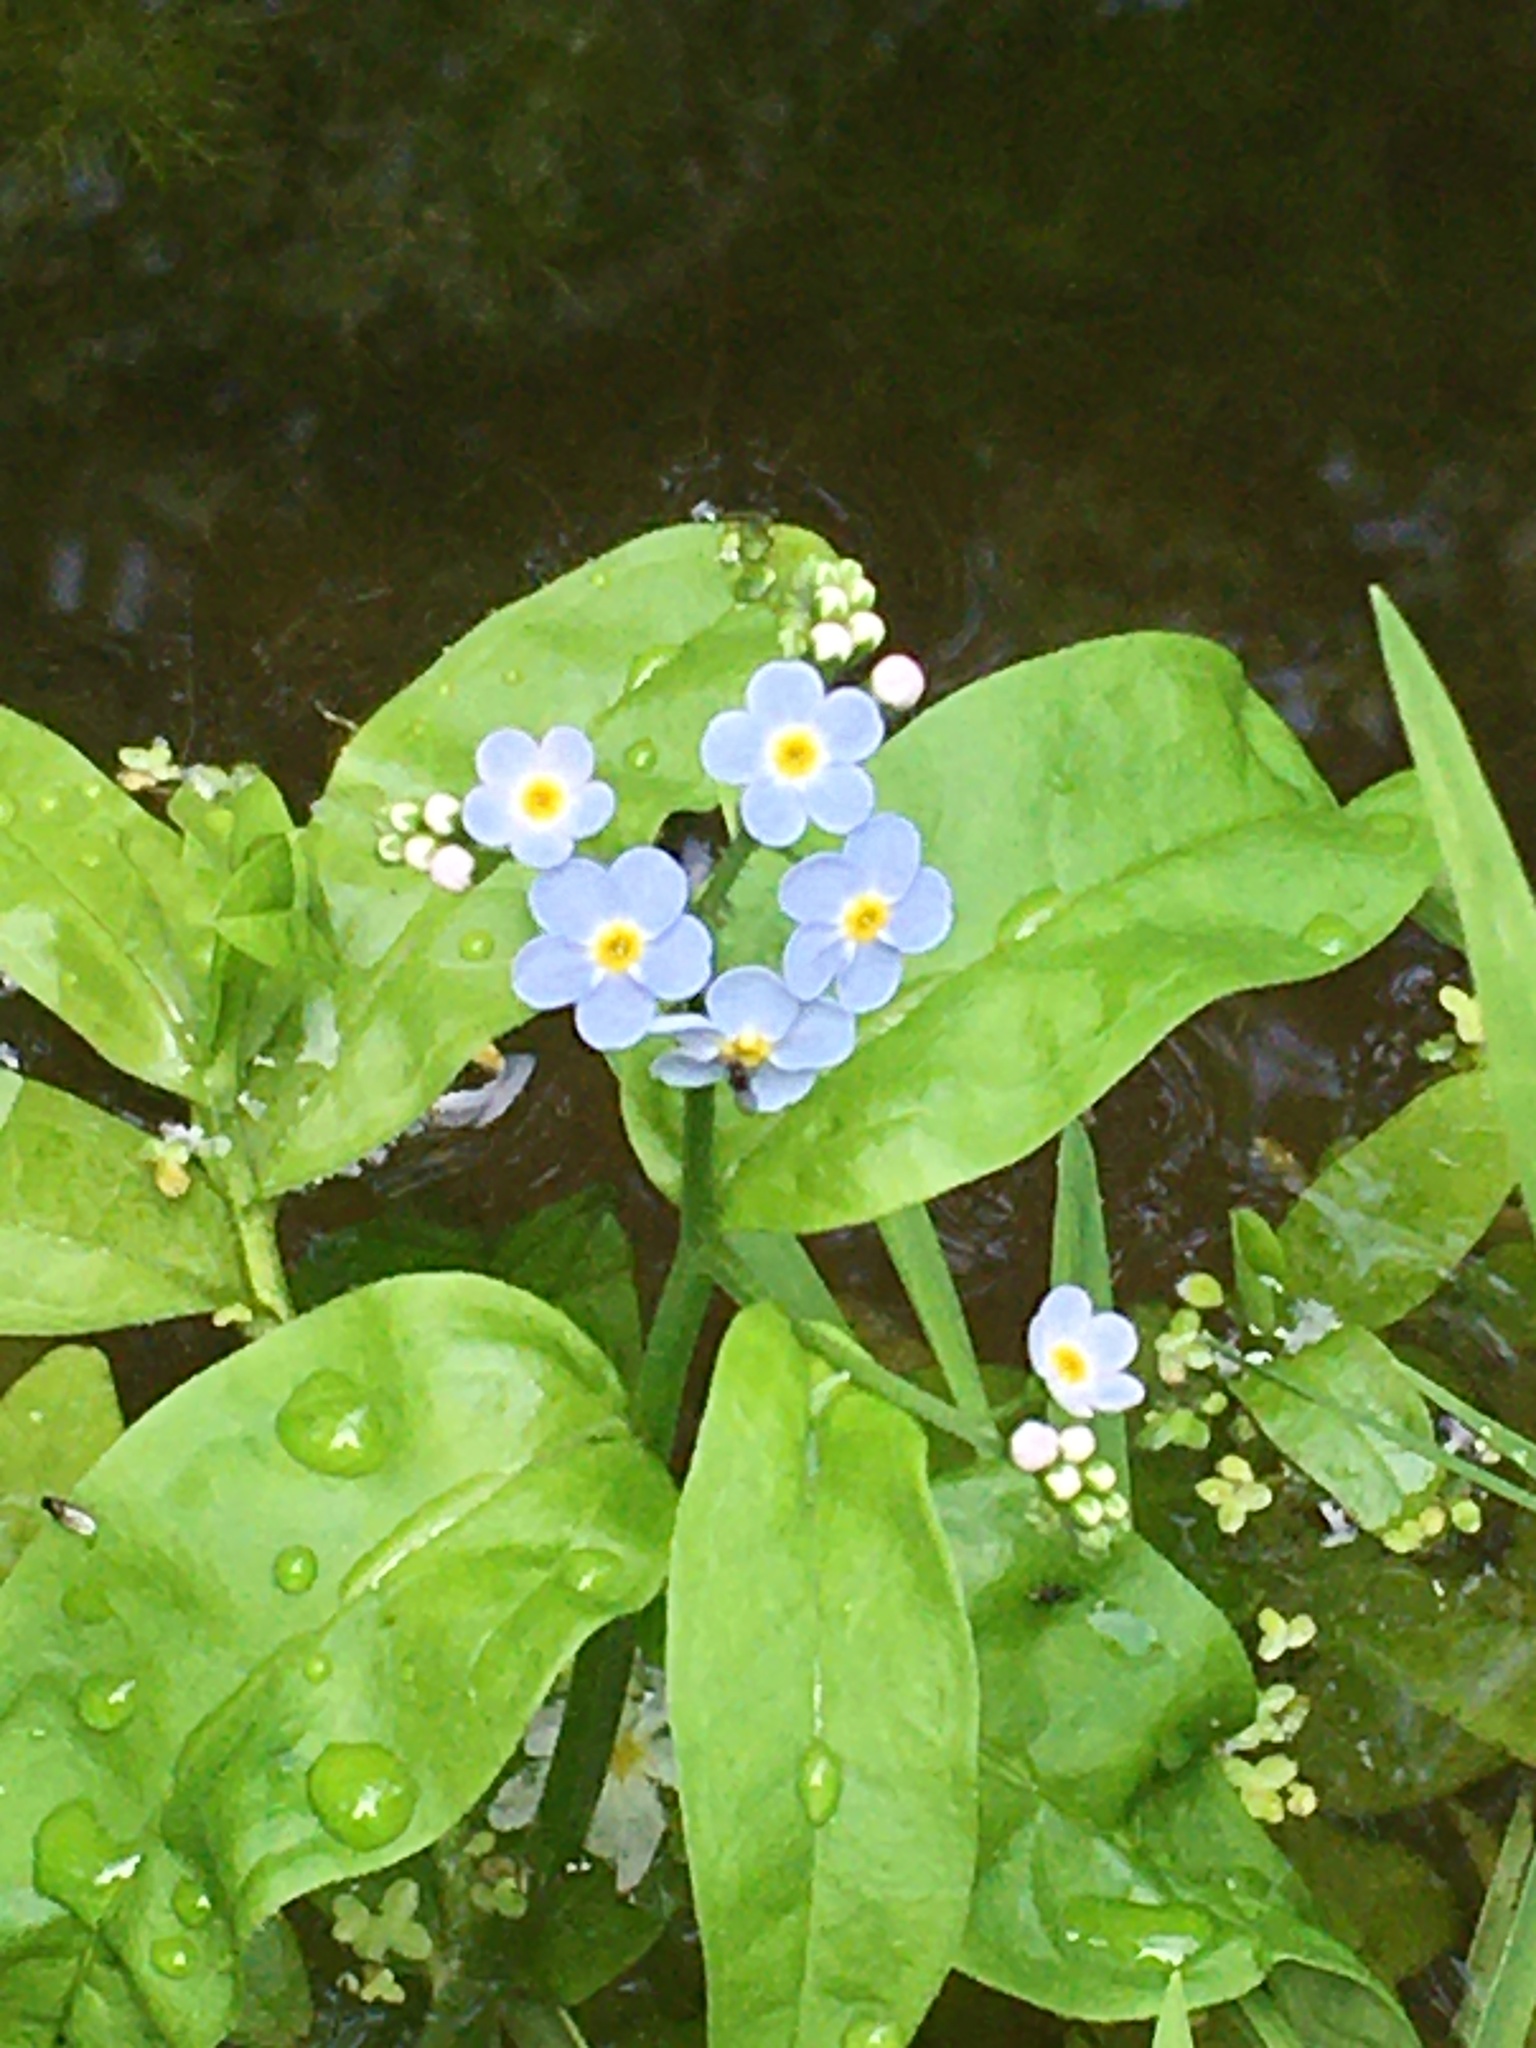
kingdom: Plantae
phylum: Tracheophyta
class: Magnoliopsida
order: Boraginales
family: Boraginaceae
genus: Myosotis
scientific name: Myosotis scorpioides
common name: Water forget-me-not
